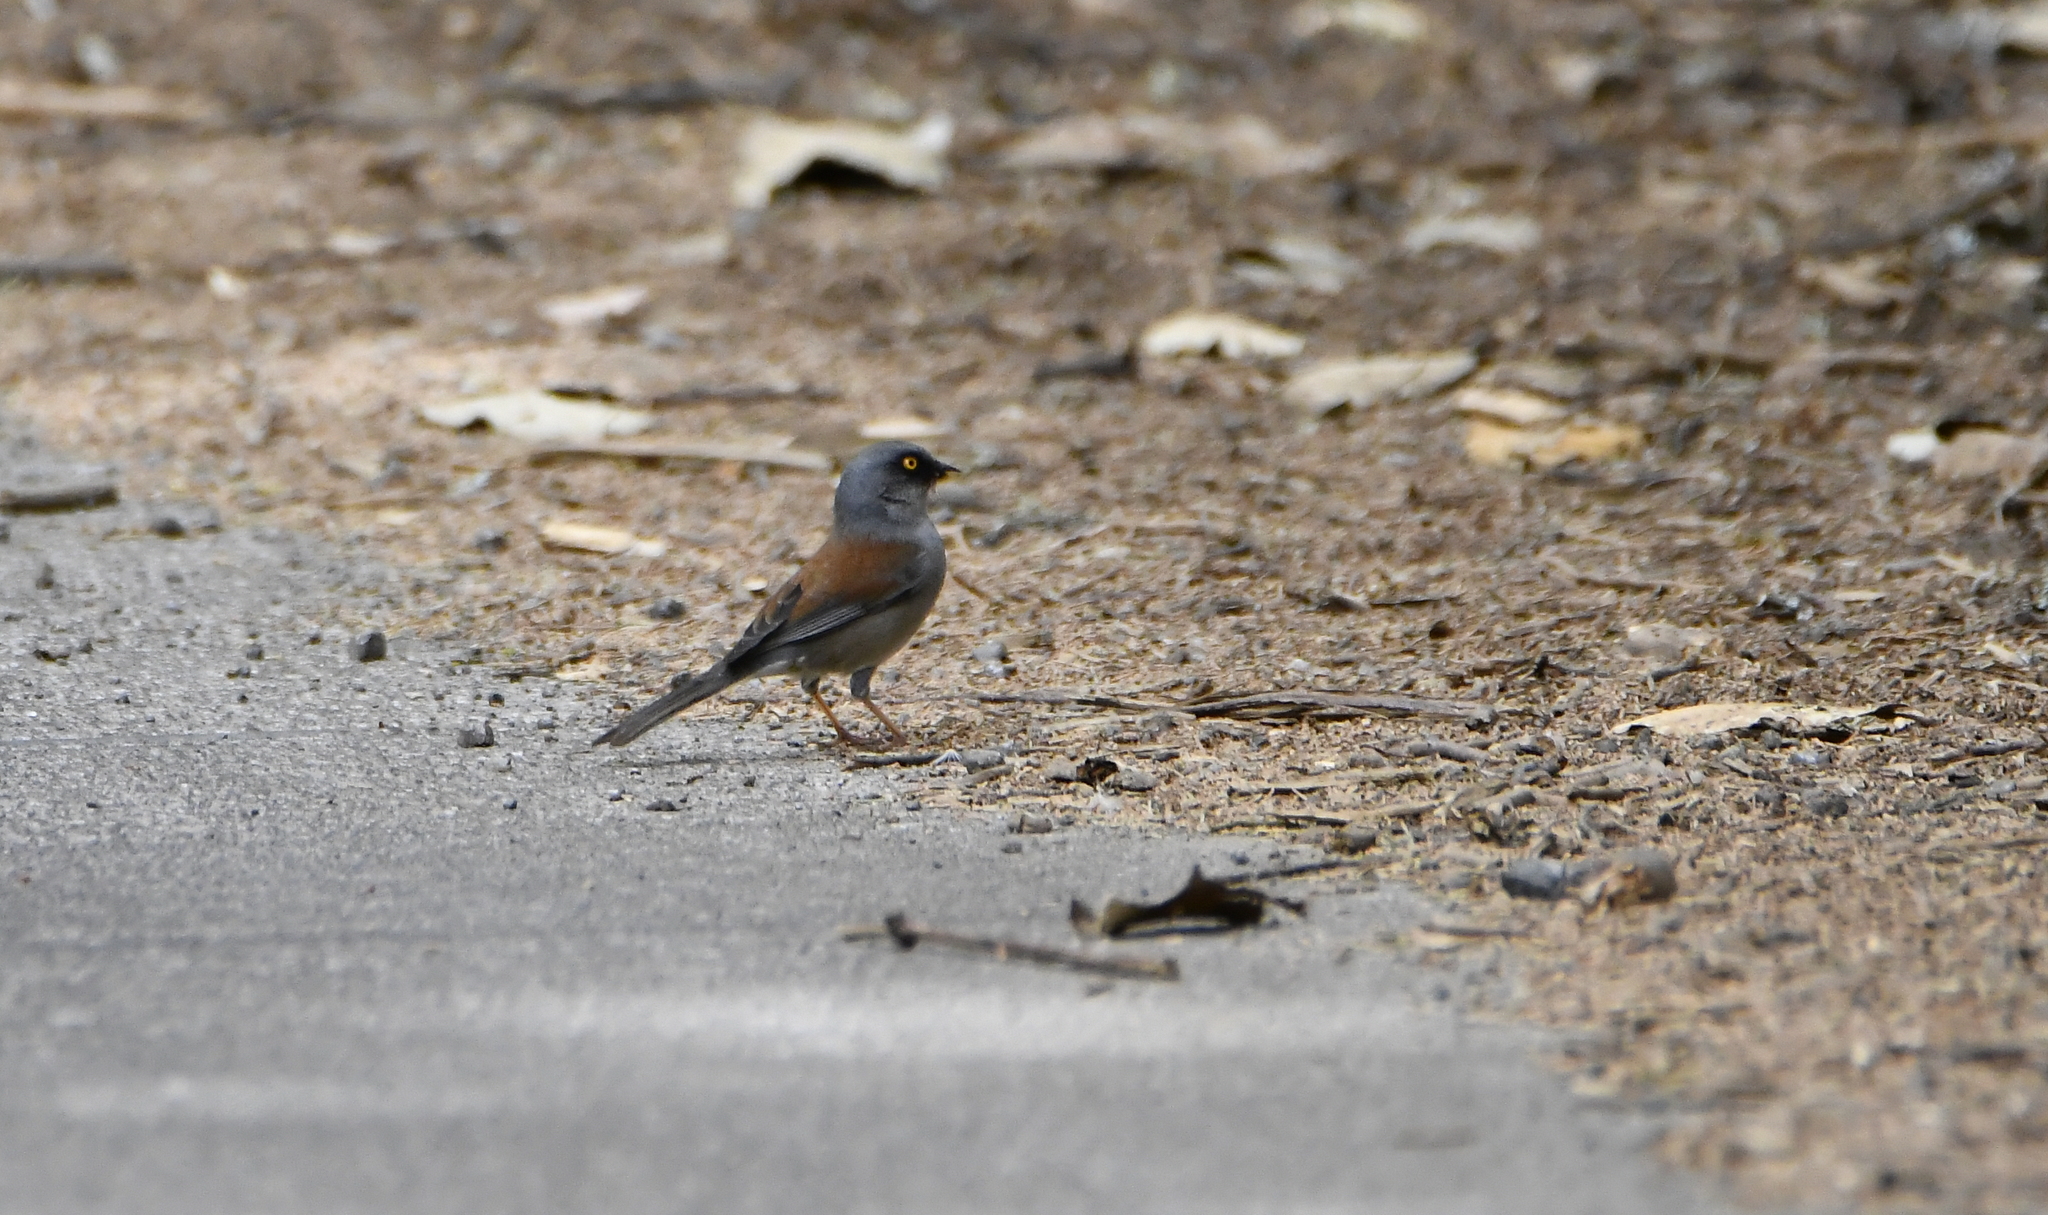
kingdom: Animalia
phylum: Chordata
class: Aves
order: Passeriformes
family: Passerellidae
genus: Junco
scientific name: Junco phaeonotus
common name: Yellow-eyed junco
